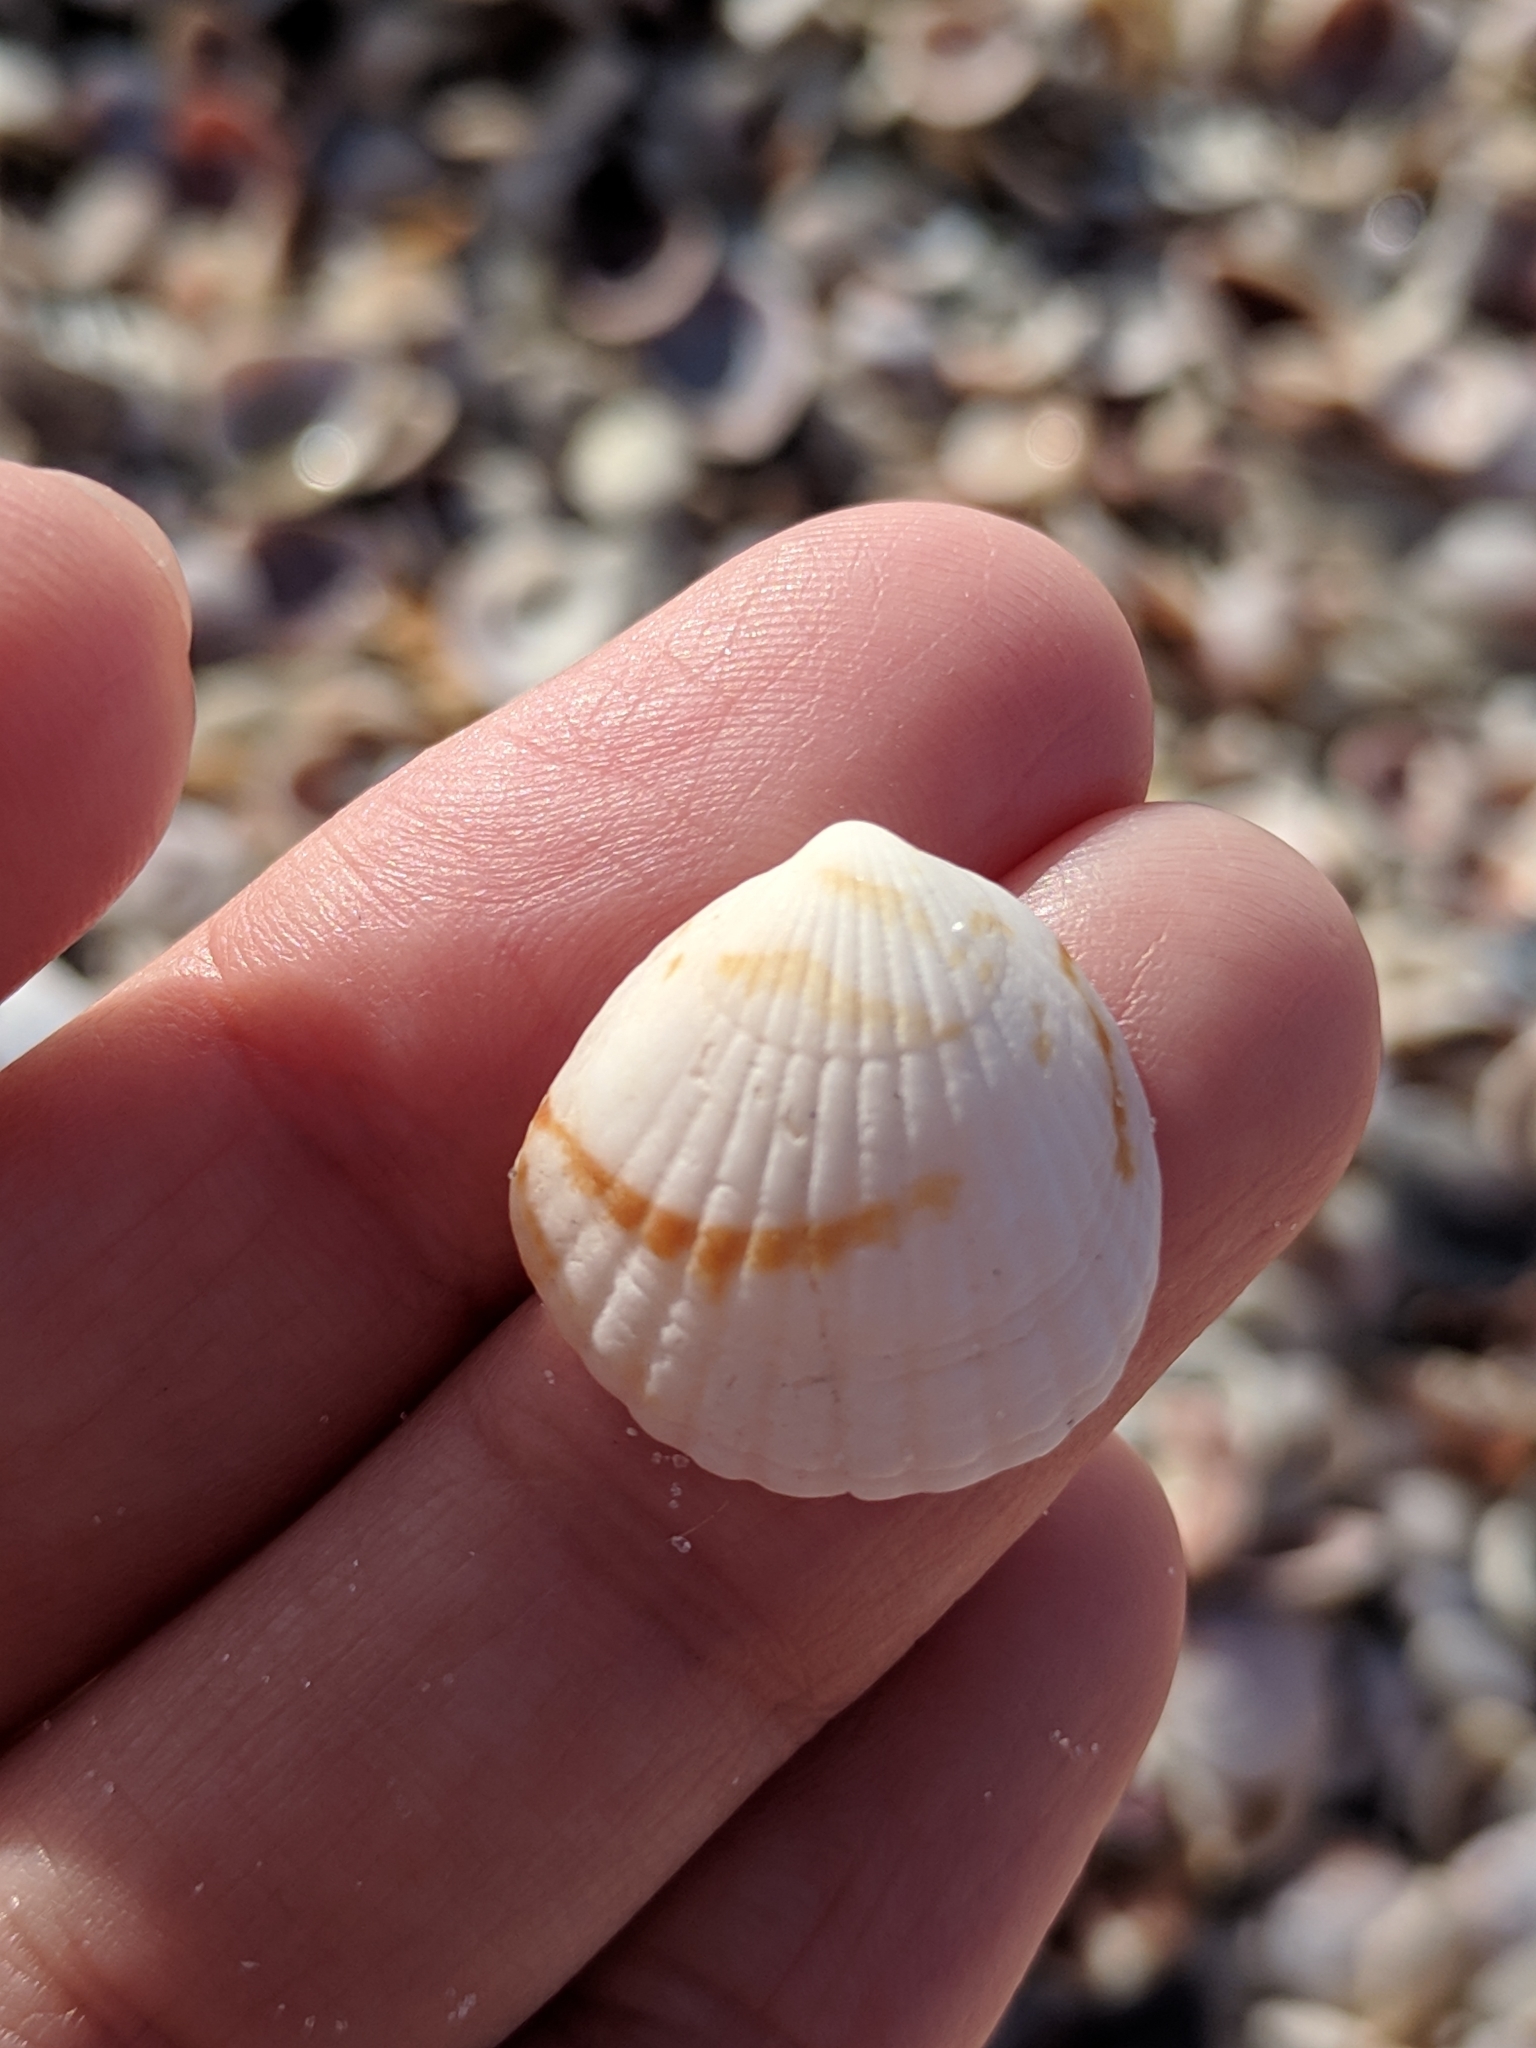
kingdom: Animalia
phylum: Mollusca
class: Bivalvia
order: Arcida
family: Glycymerididae
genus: Tucetona
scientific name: Tucetona pectinata
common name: Comb bittersweet
